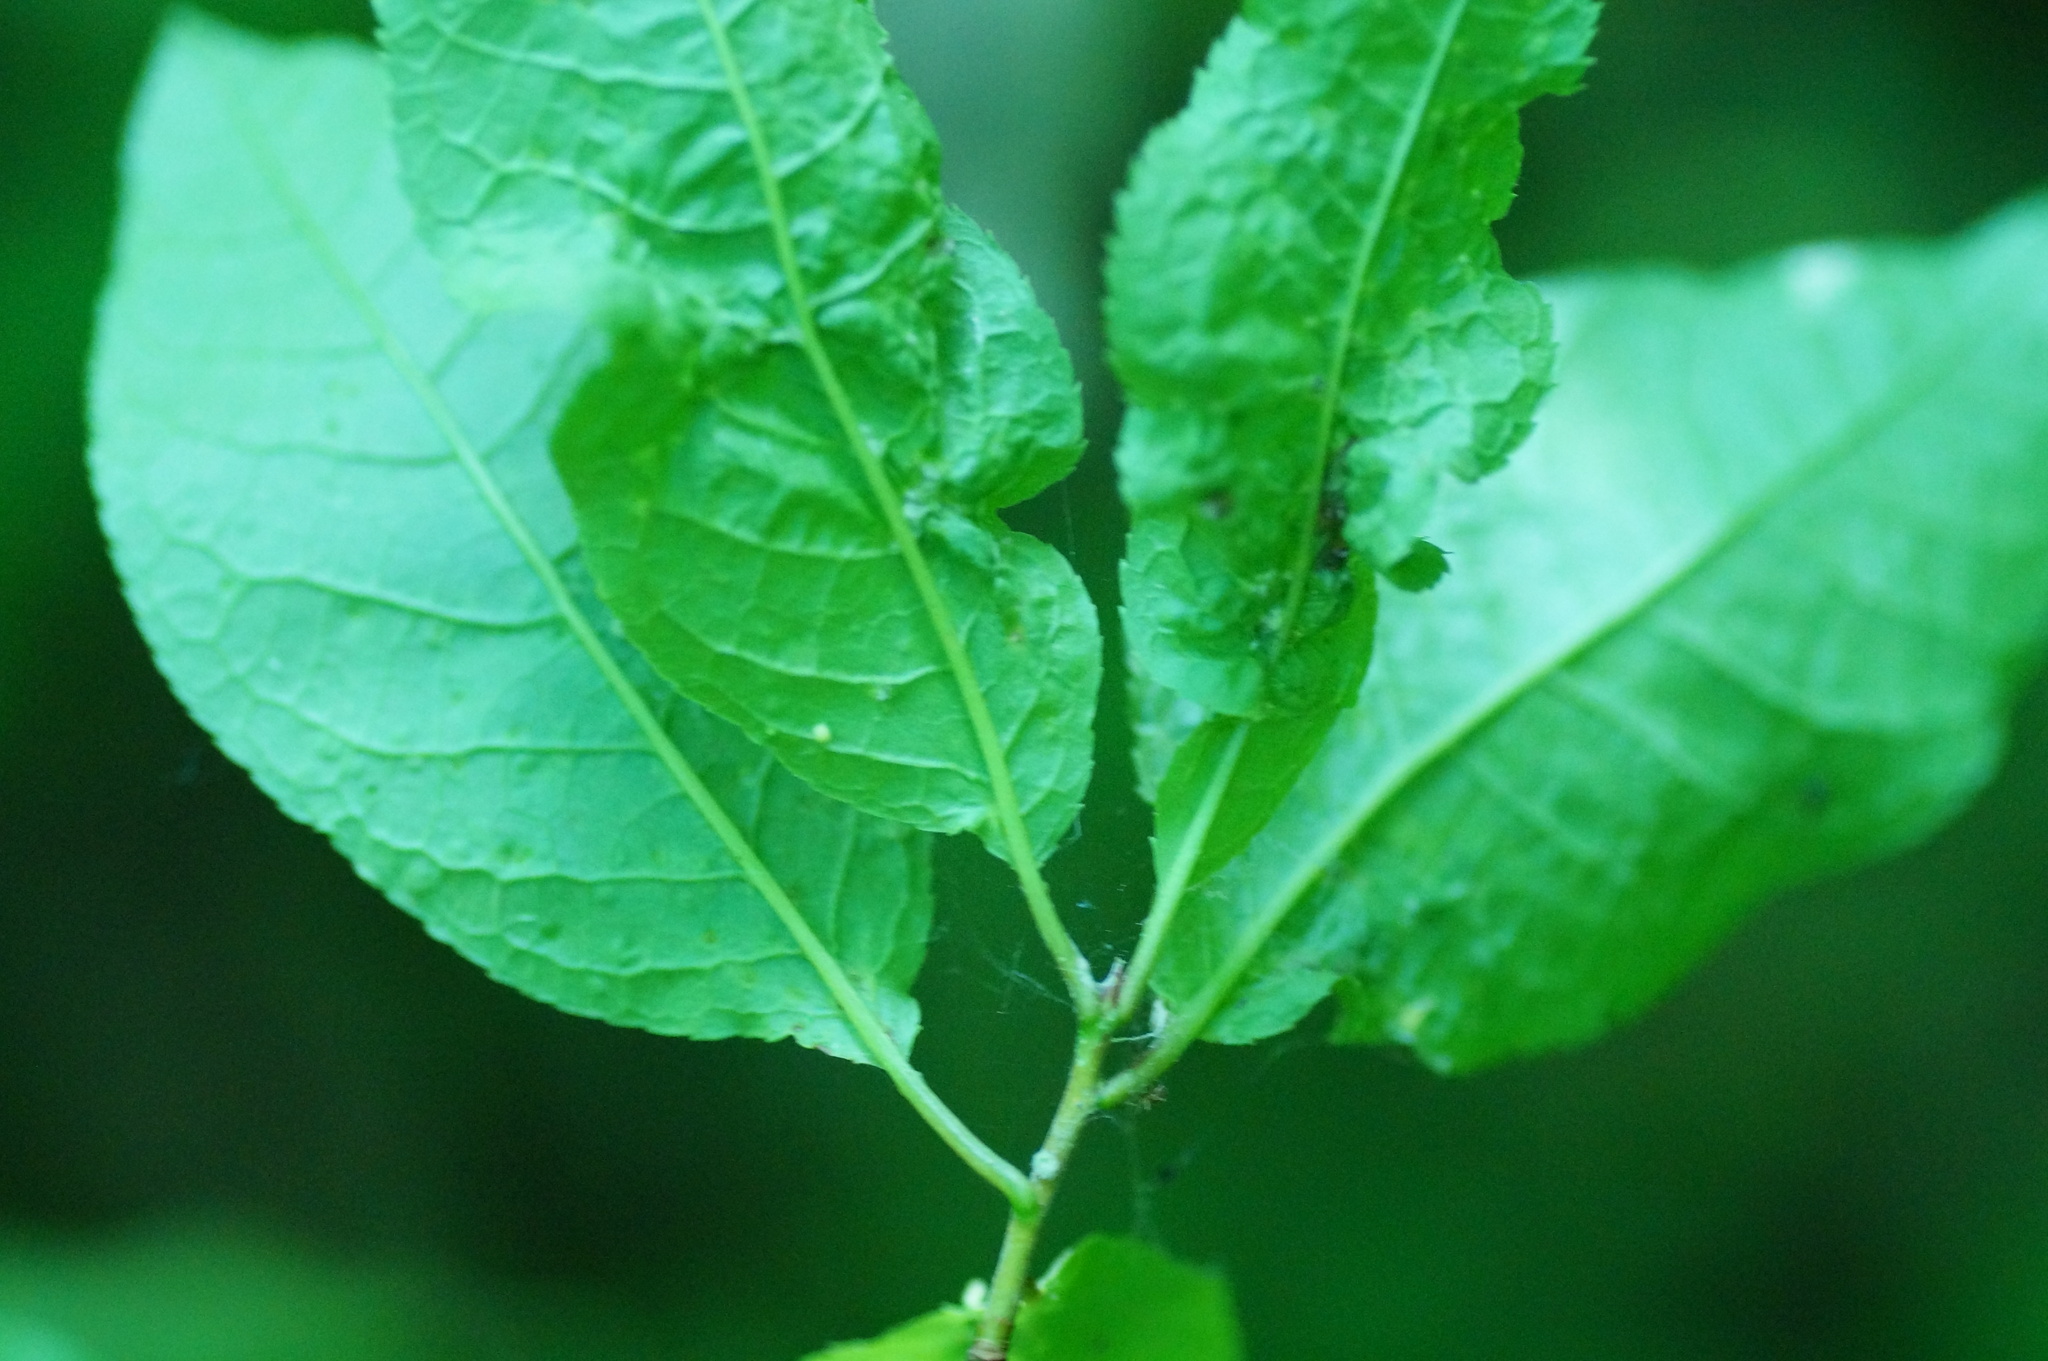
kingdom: Animalia
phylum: Arthropoda
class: Arachnida
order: Trombidiformes
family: Eriophyidae
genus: Phyllocoptes
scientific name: Phyllocoptes eupadi
